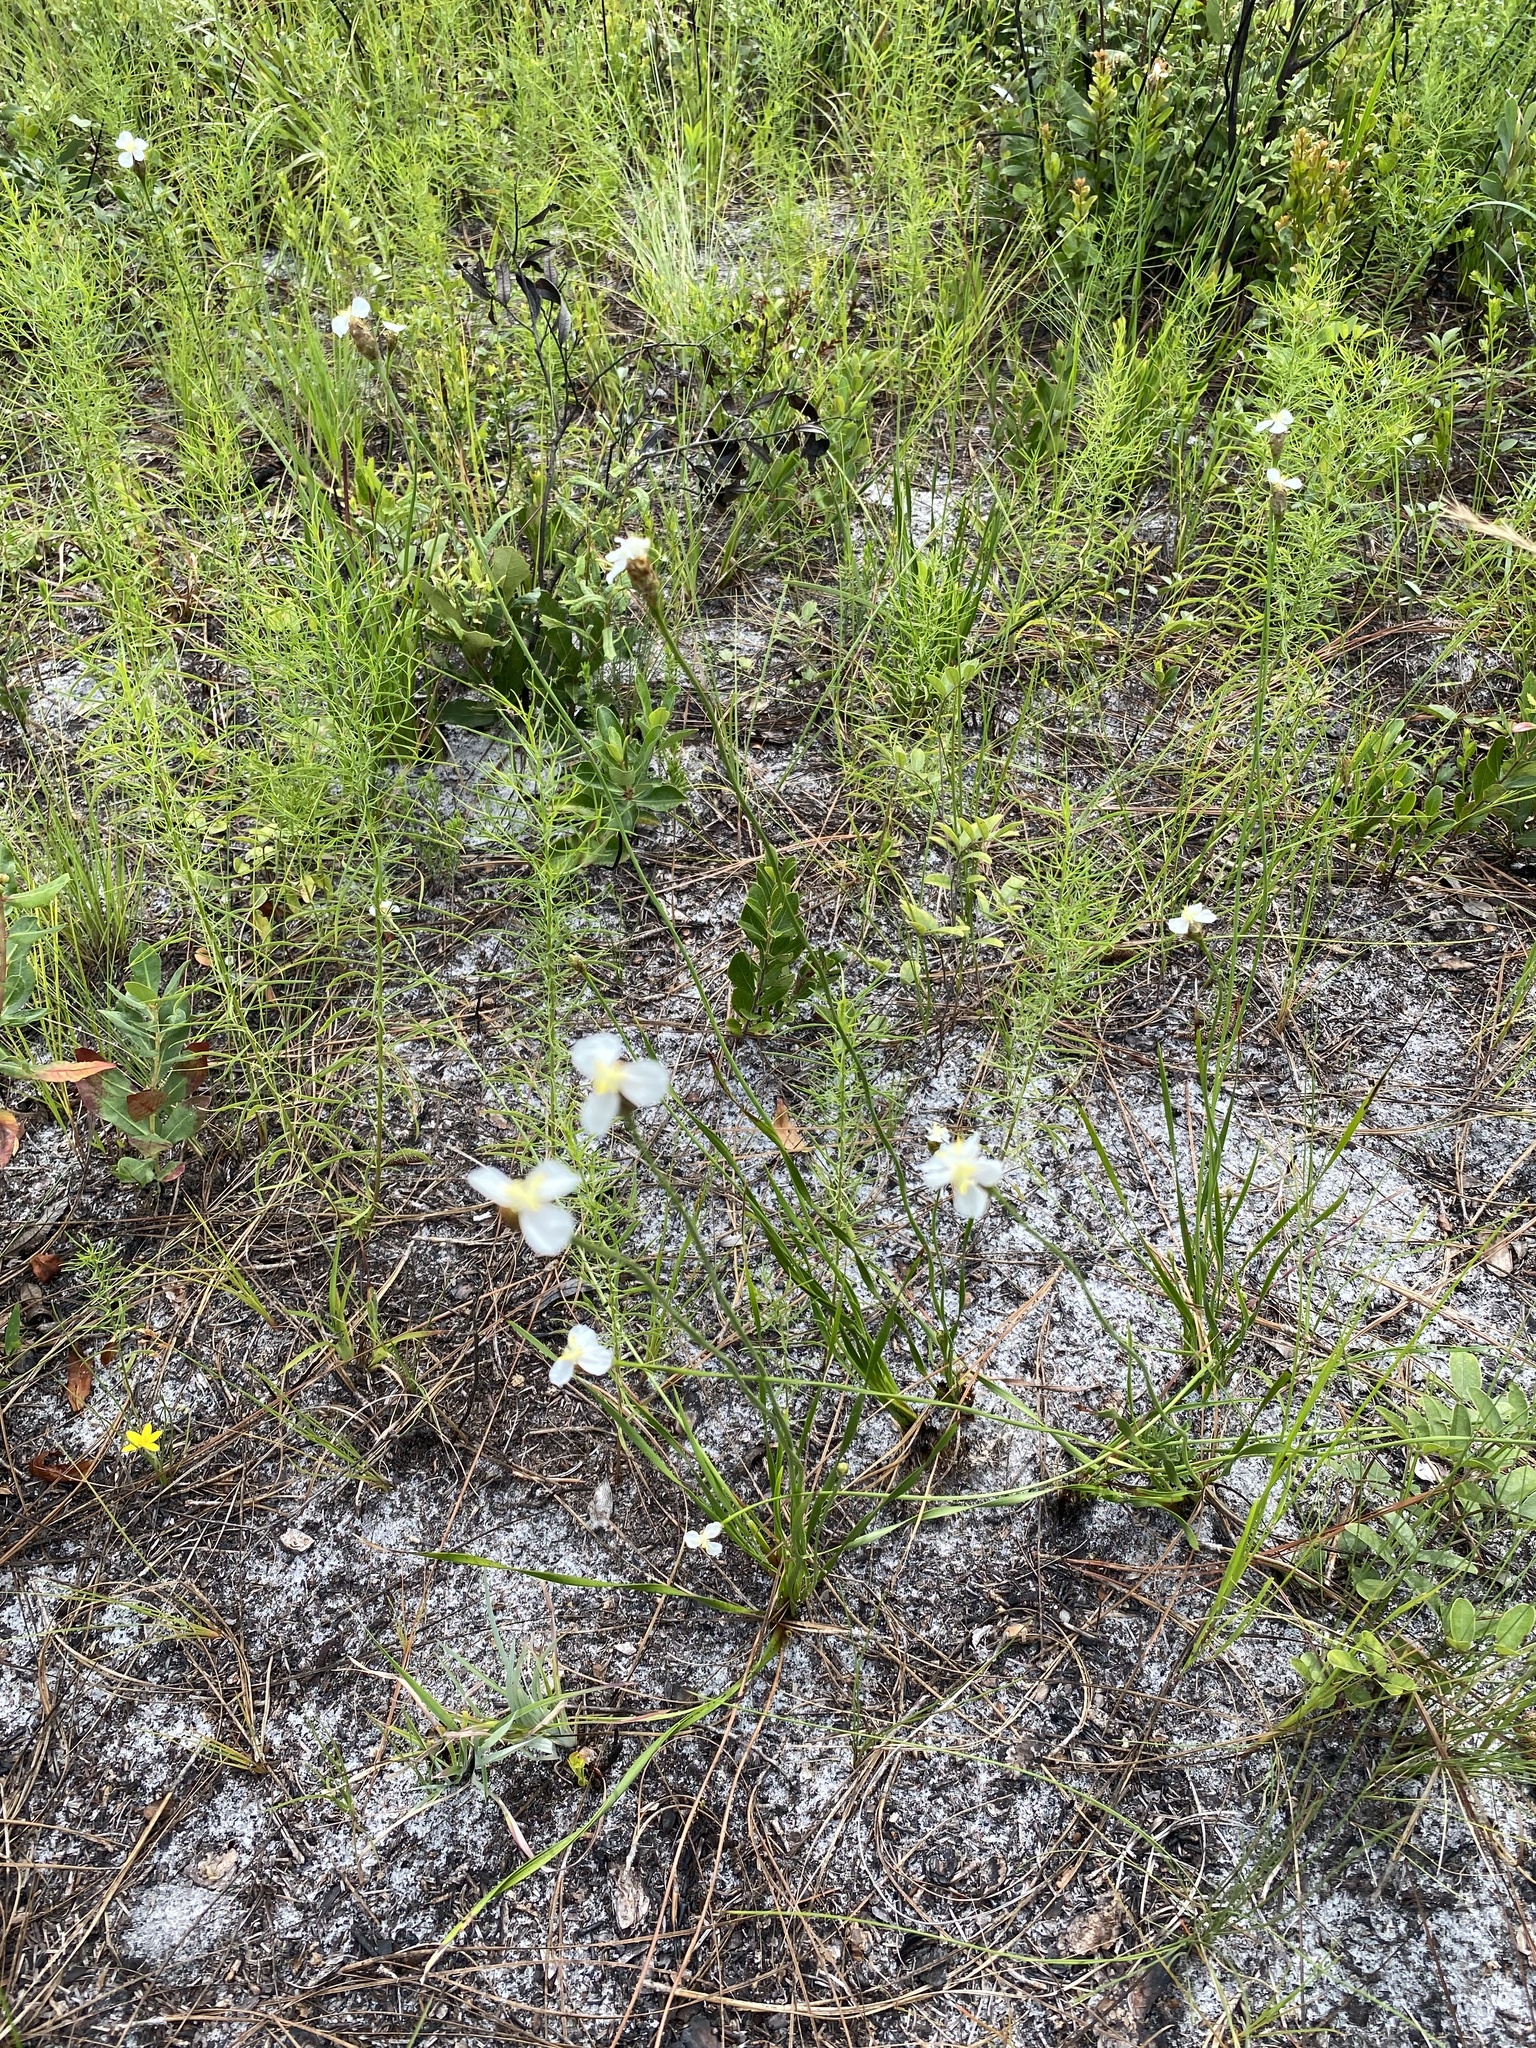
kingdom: Plantae
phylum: Tracheophyta
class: Liliopsida
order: Poales
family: Xyridaceae
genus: Xyris
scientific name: Xyris caroliniana
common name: Carolina yellow-eyed-grass
